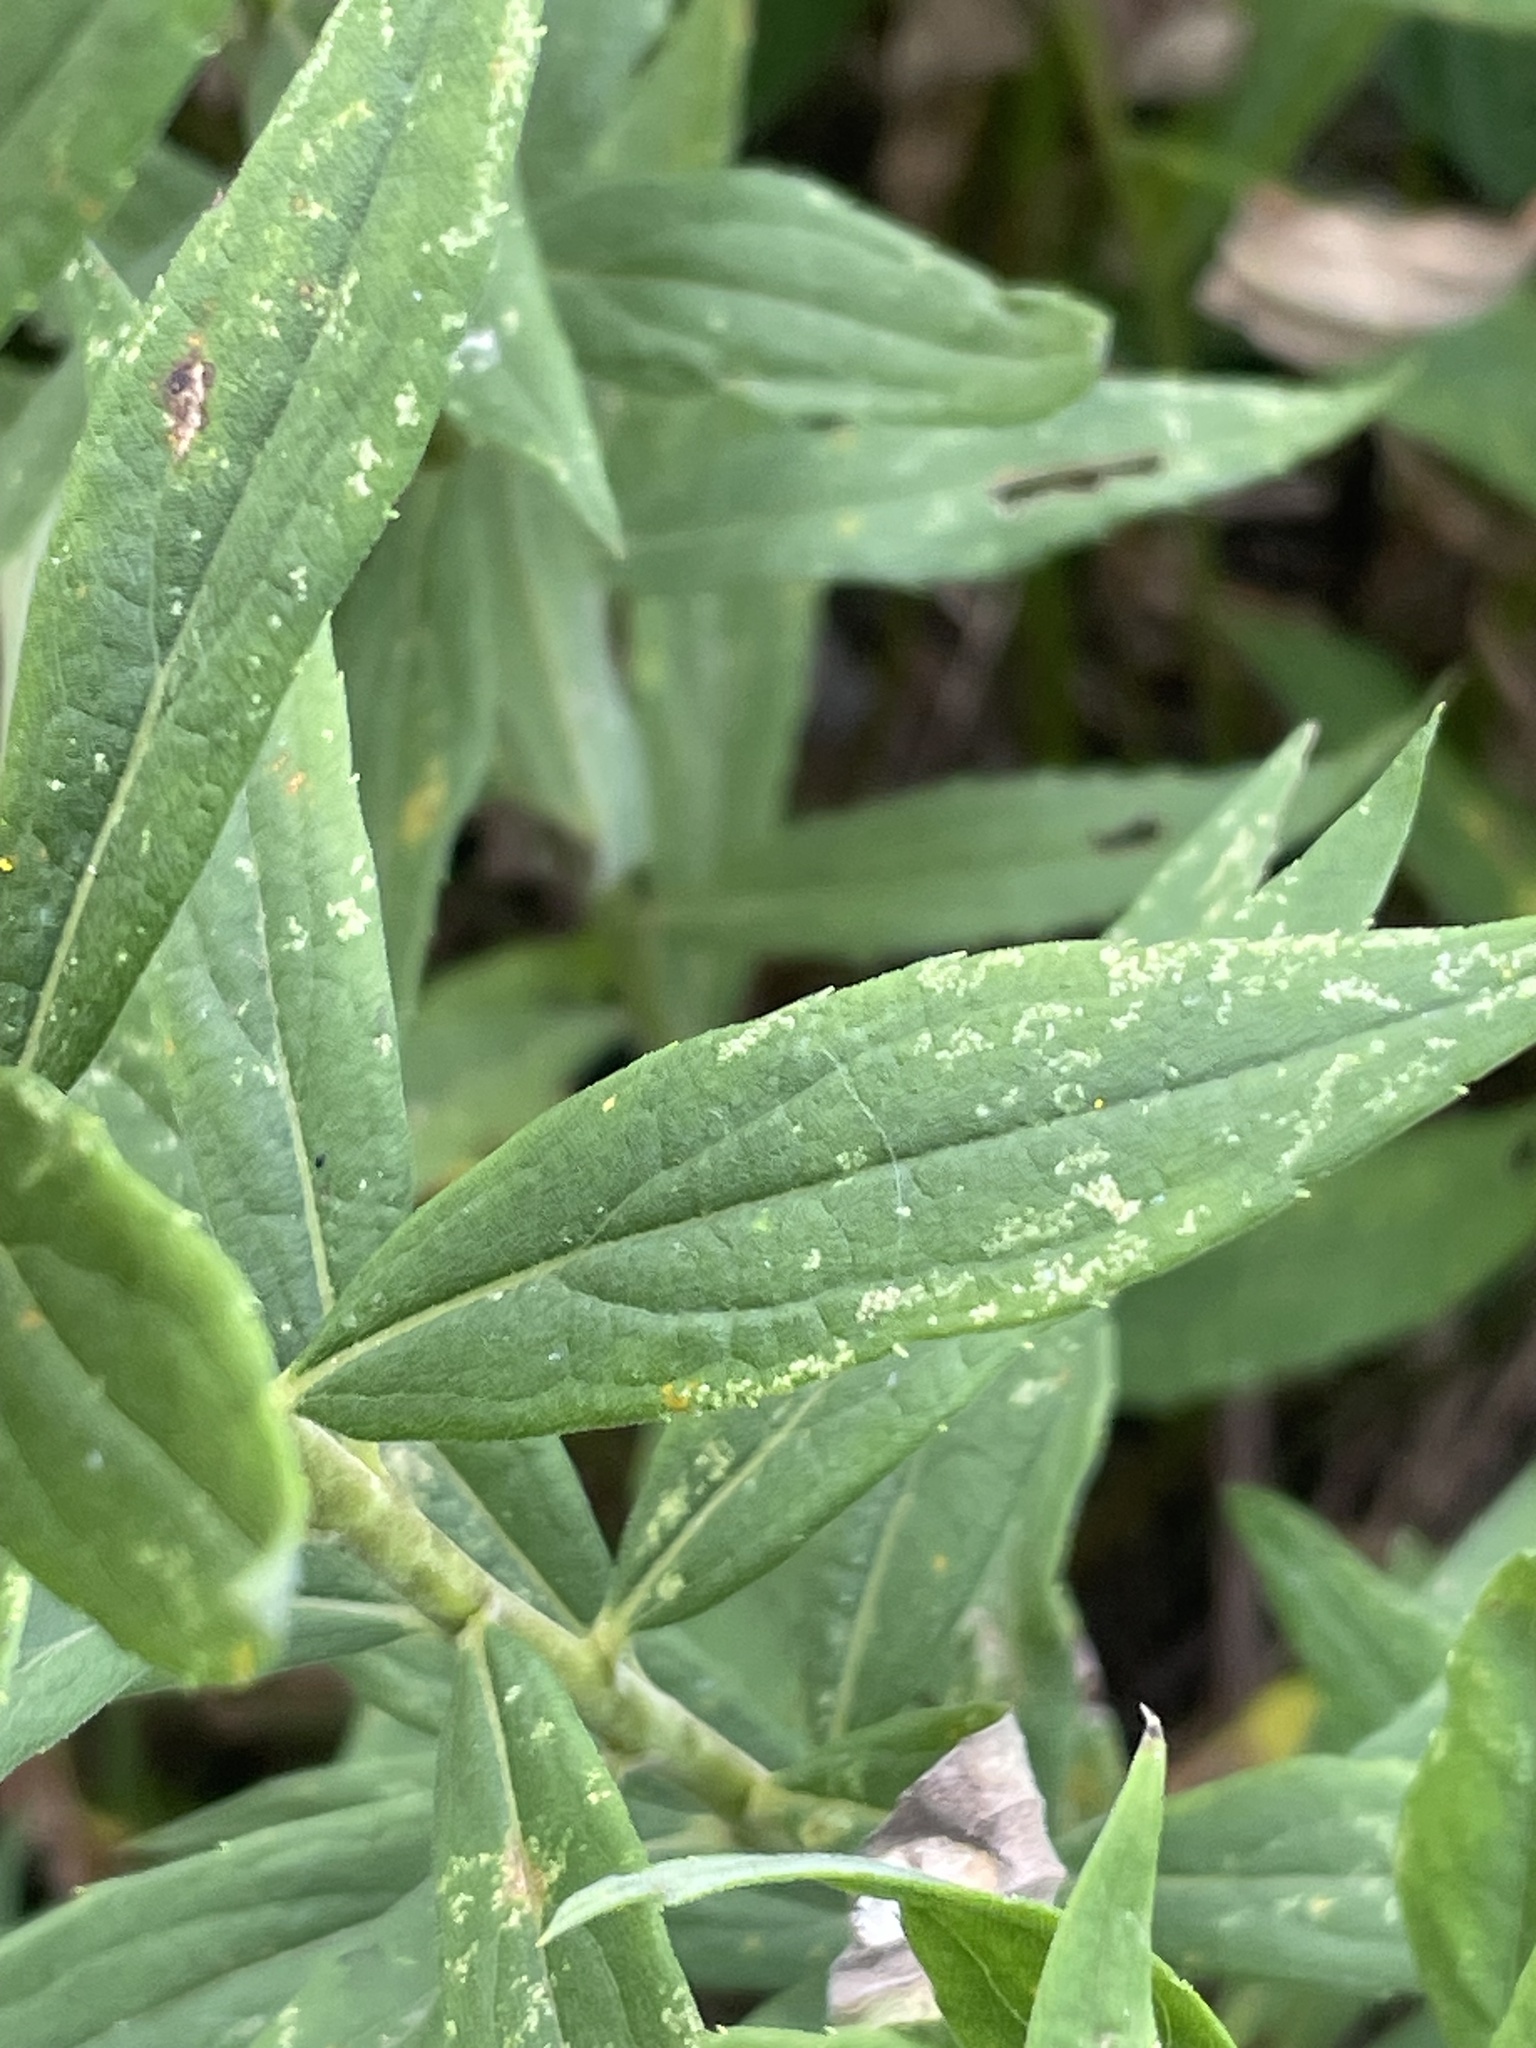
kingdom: Plantae
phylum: Tracheophyta
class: Magnoliopsida
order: Asterales
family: Asteraceae
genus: Solidago
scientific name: Solidago altissima
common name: Late goldenrod
